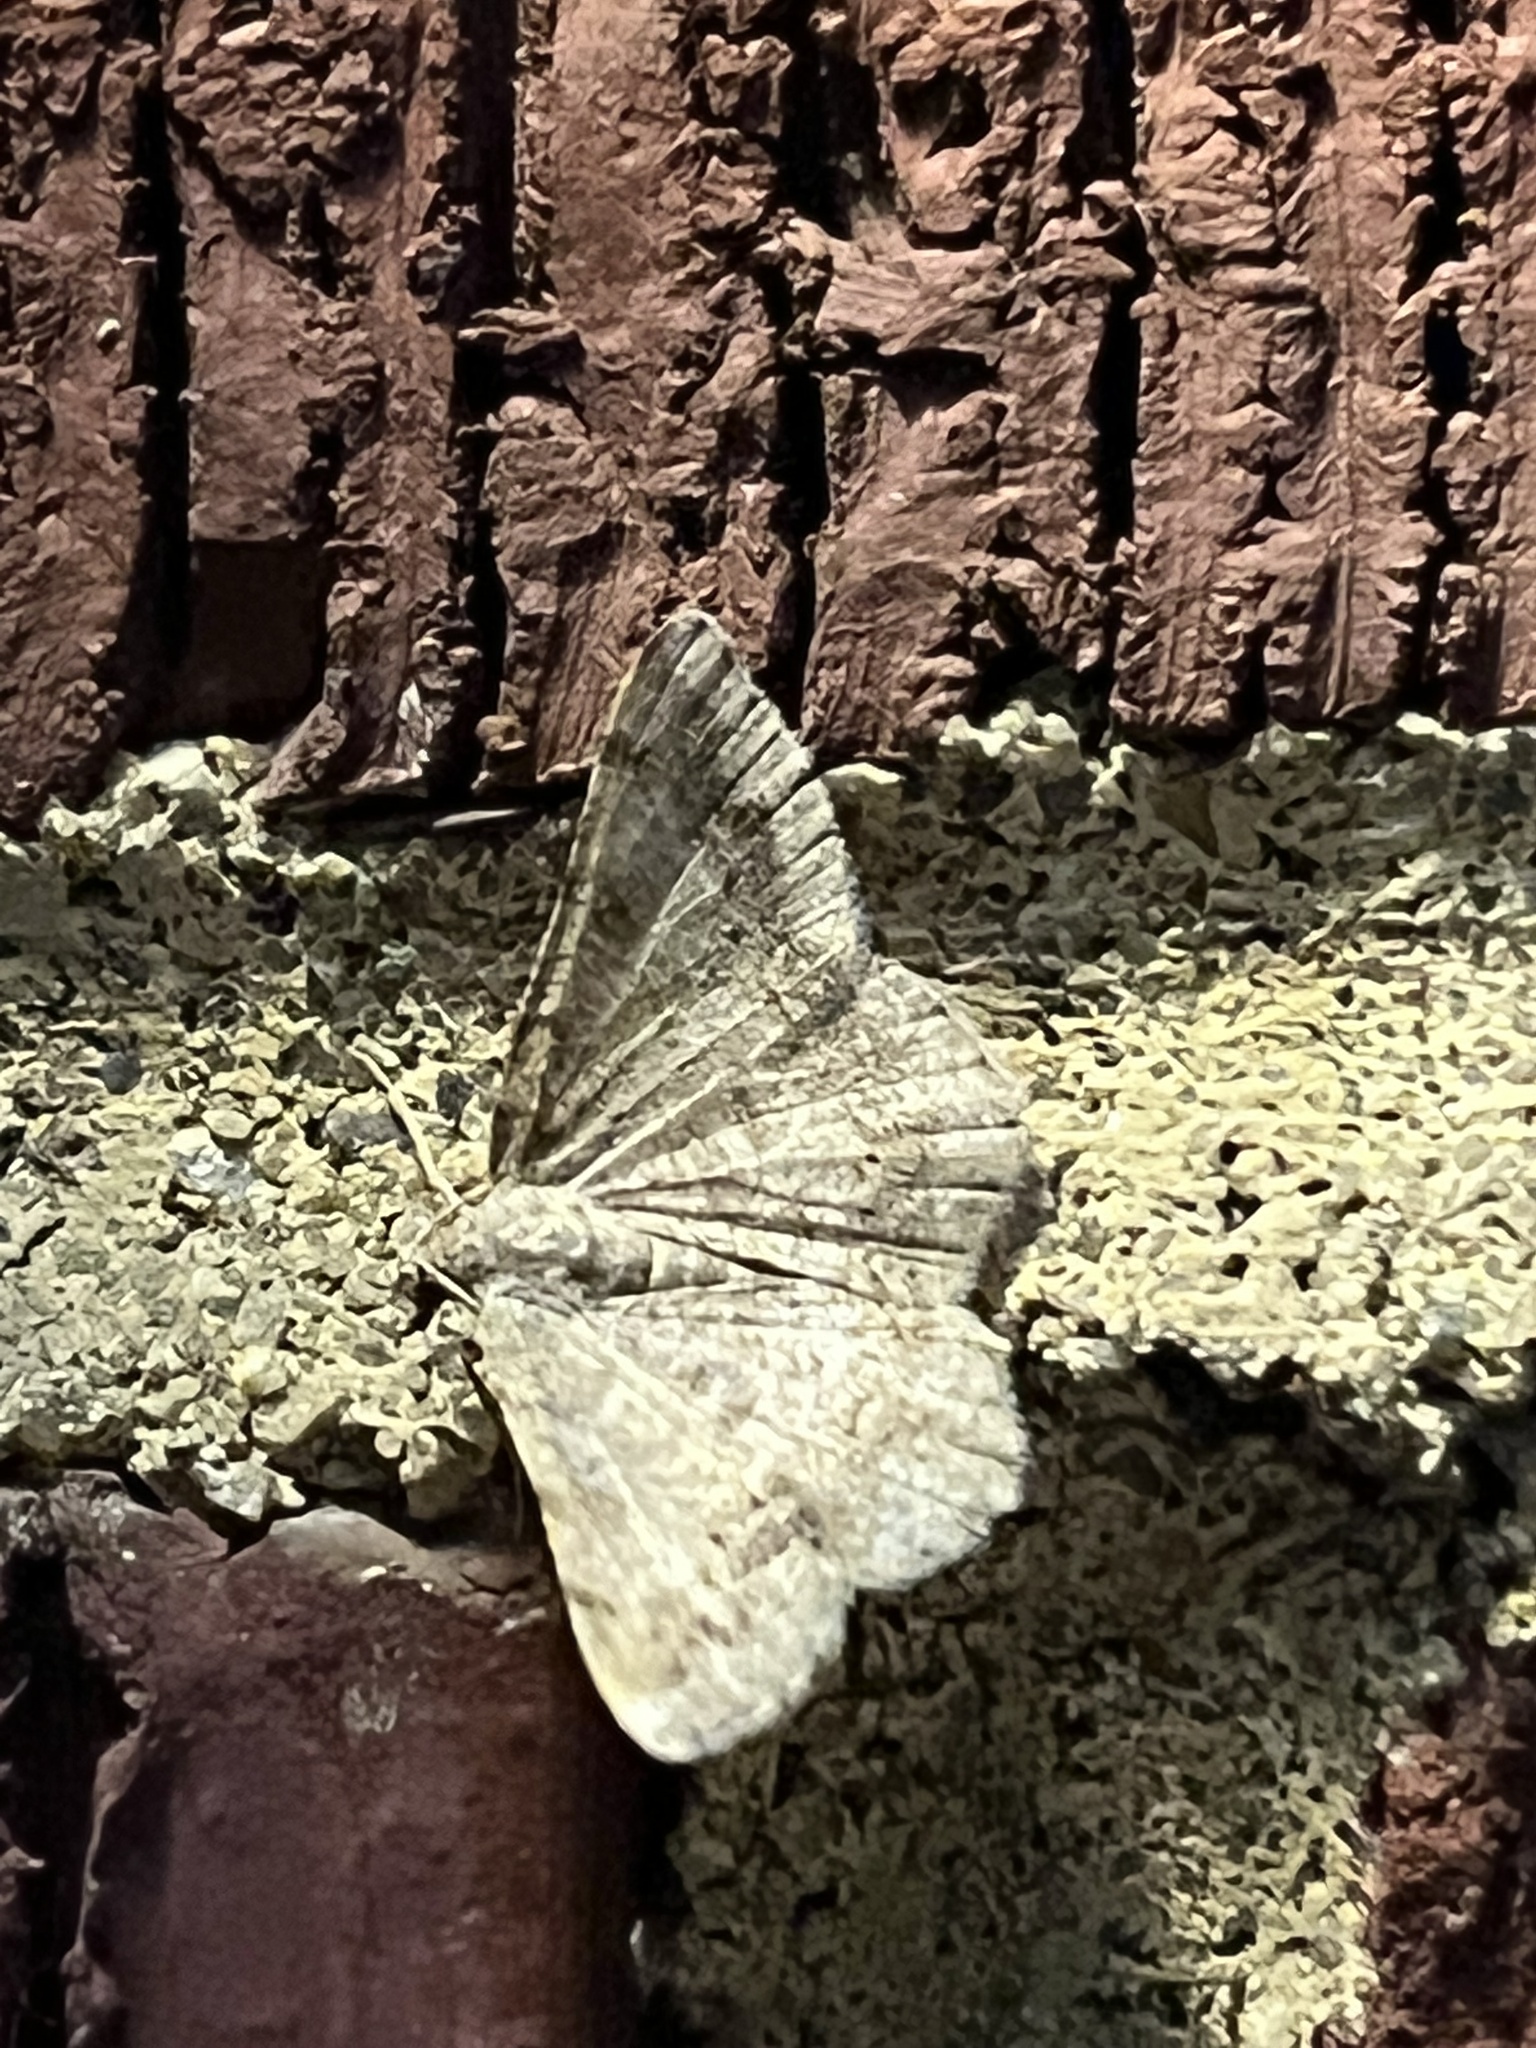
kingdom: Animalia
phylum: Arthropoda
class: Insecta
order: Lepidoptera
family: Geometridae
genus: Digrammia
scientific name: Digrammia ocellinata
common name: Faint-spotted angle
